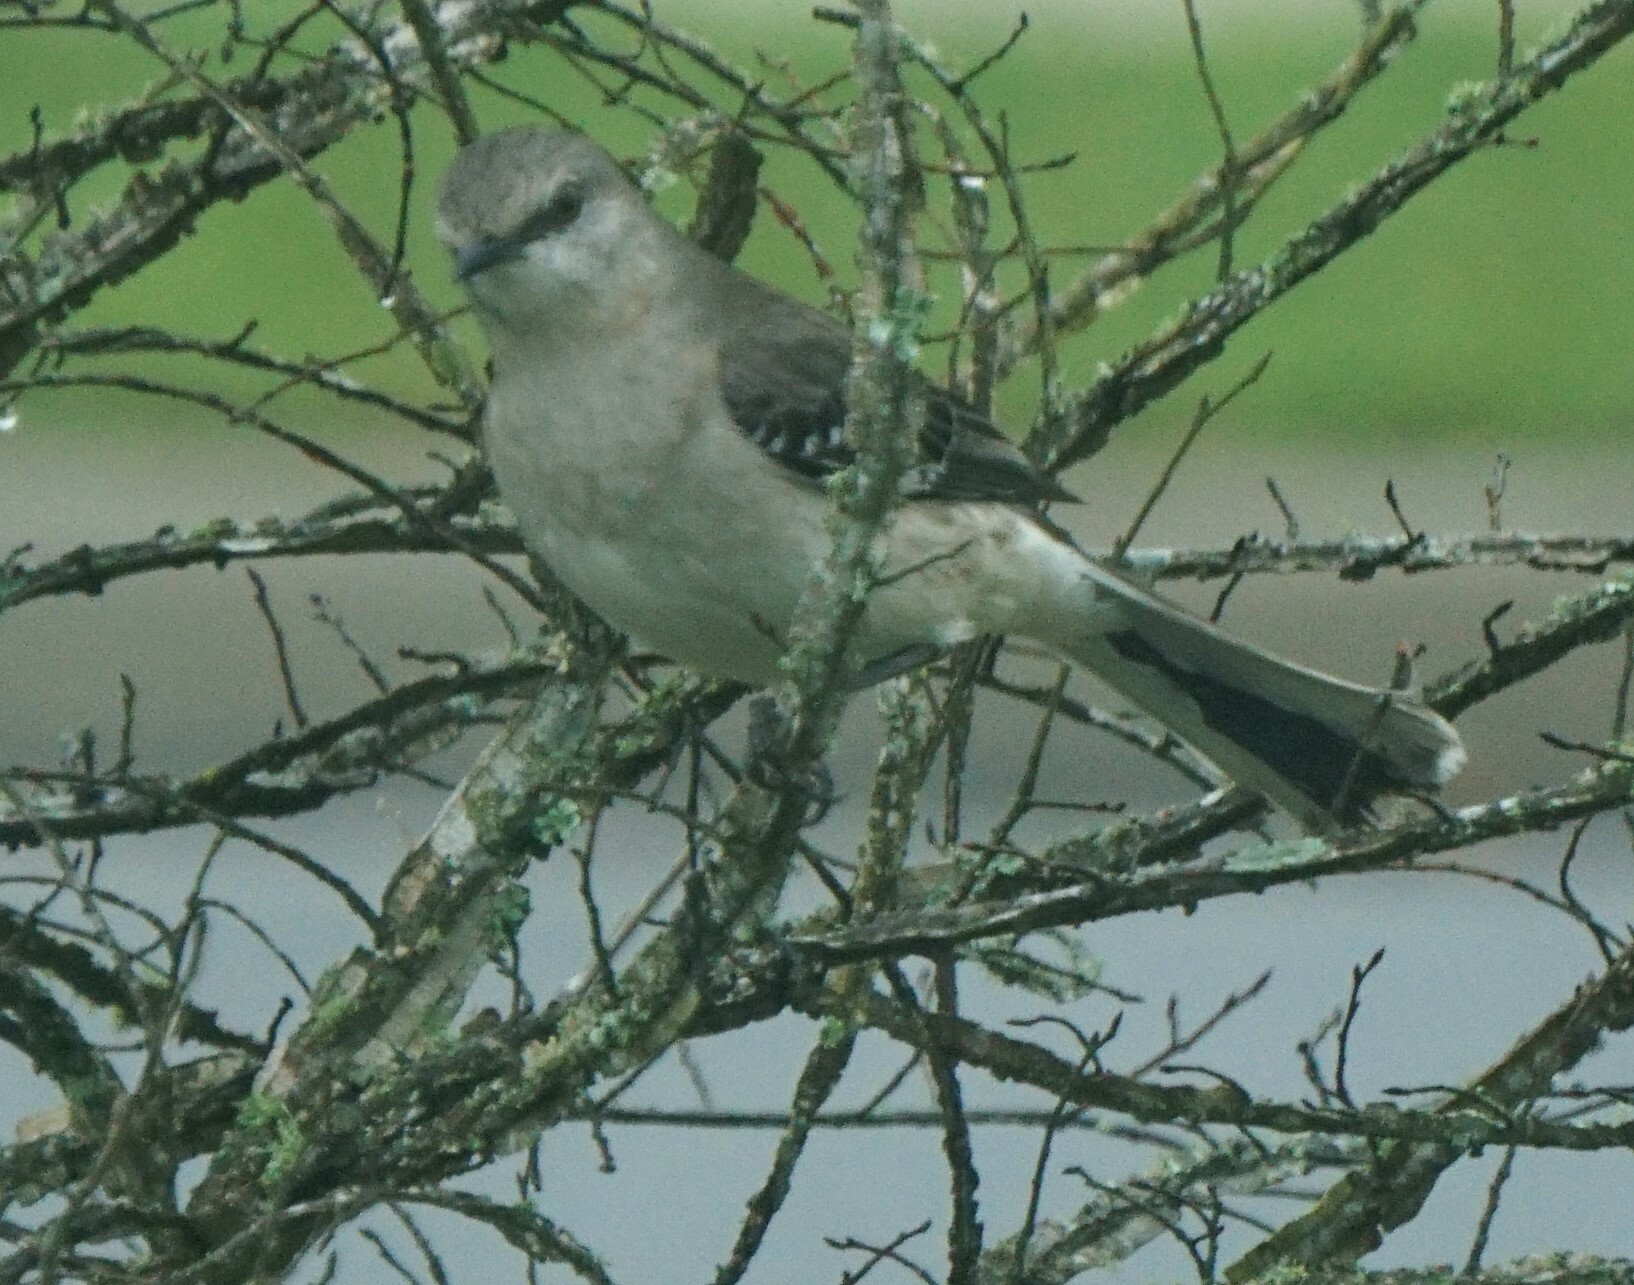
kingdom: Animalia
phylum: Chordata
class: Aves
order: Passeriformes
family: Mimidae
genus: Mimus
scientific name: Mimus polyglottos
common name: Northern mockingbird
